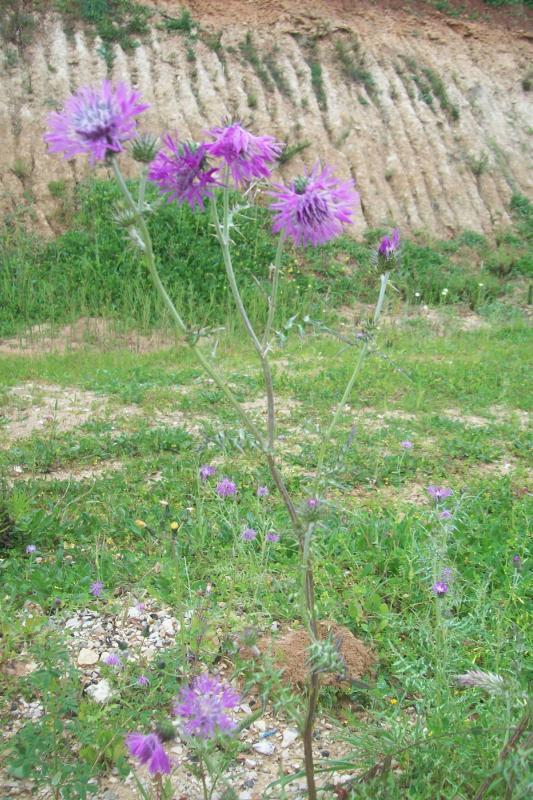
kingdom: Plantae
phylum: Tracheophyta
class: Magnoliopsida
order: Asterales
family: Asteraceae
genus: Galactites
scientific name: Galactites tomentosa
